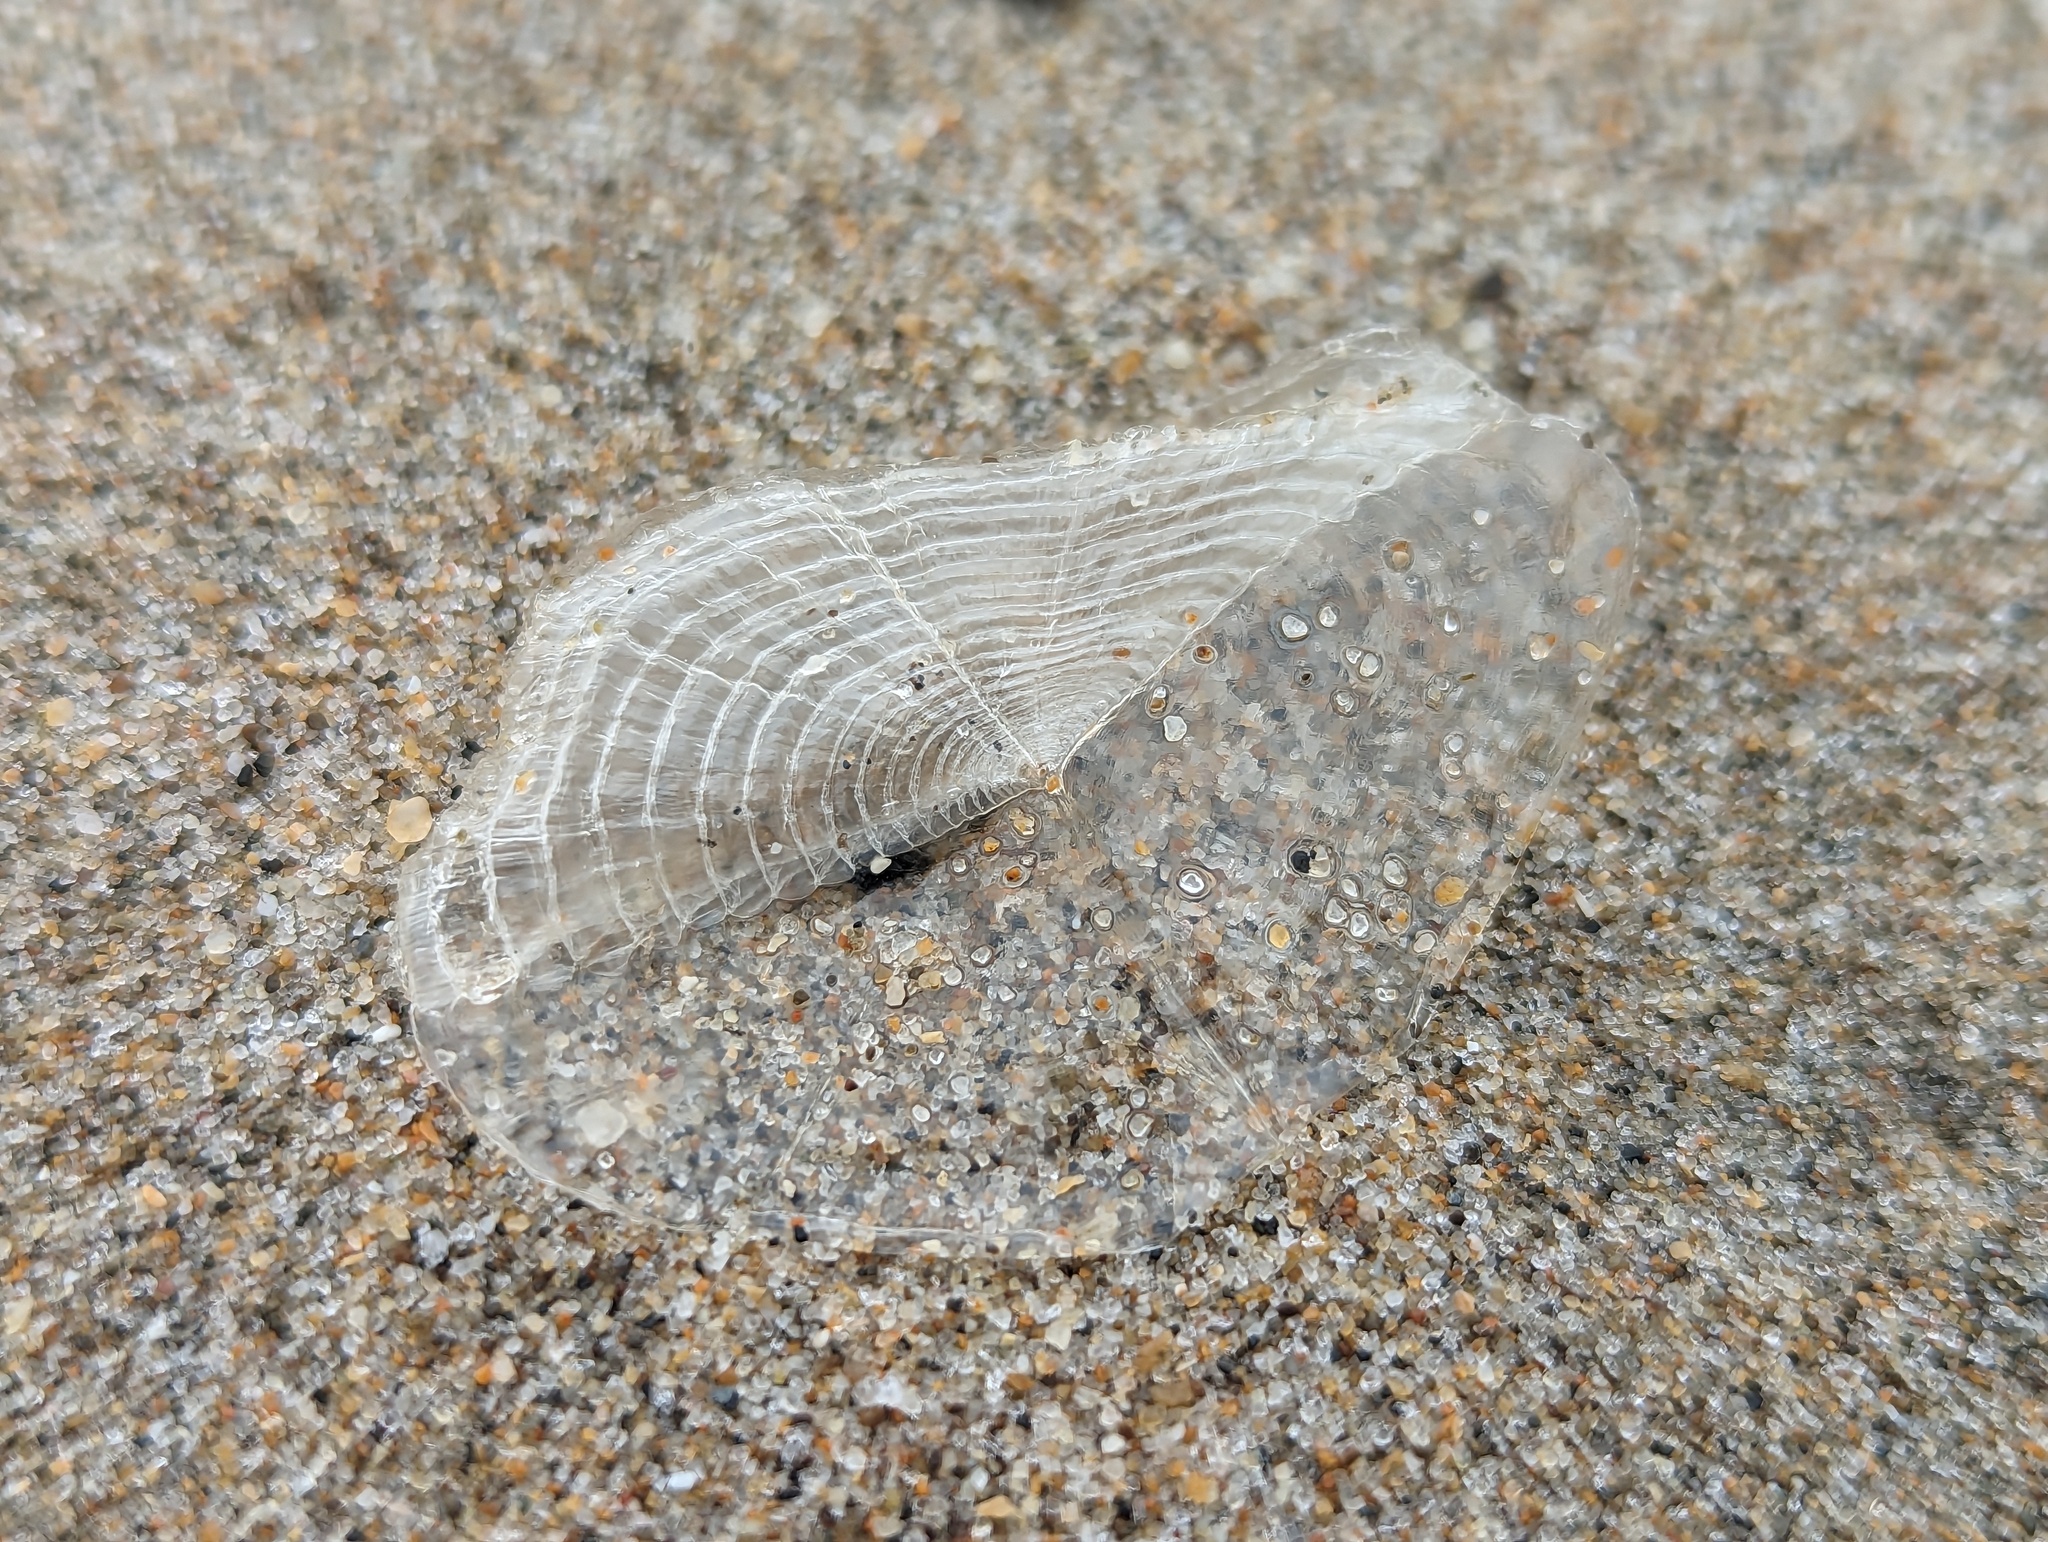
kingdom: Animalia
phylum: Cnidaria
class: Hydrozoa
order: Anthoathecata
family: Porpitidae
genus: Velella
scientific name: Velella velella
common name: By-the-wind-sailor
